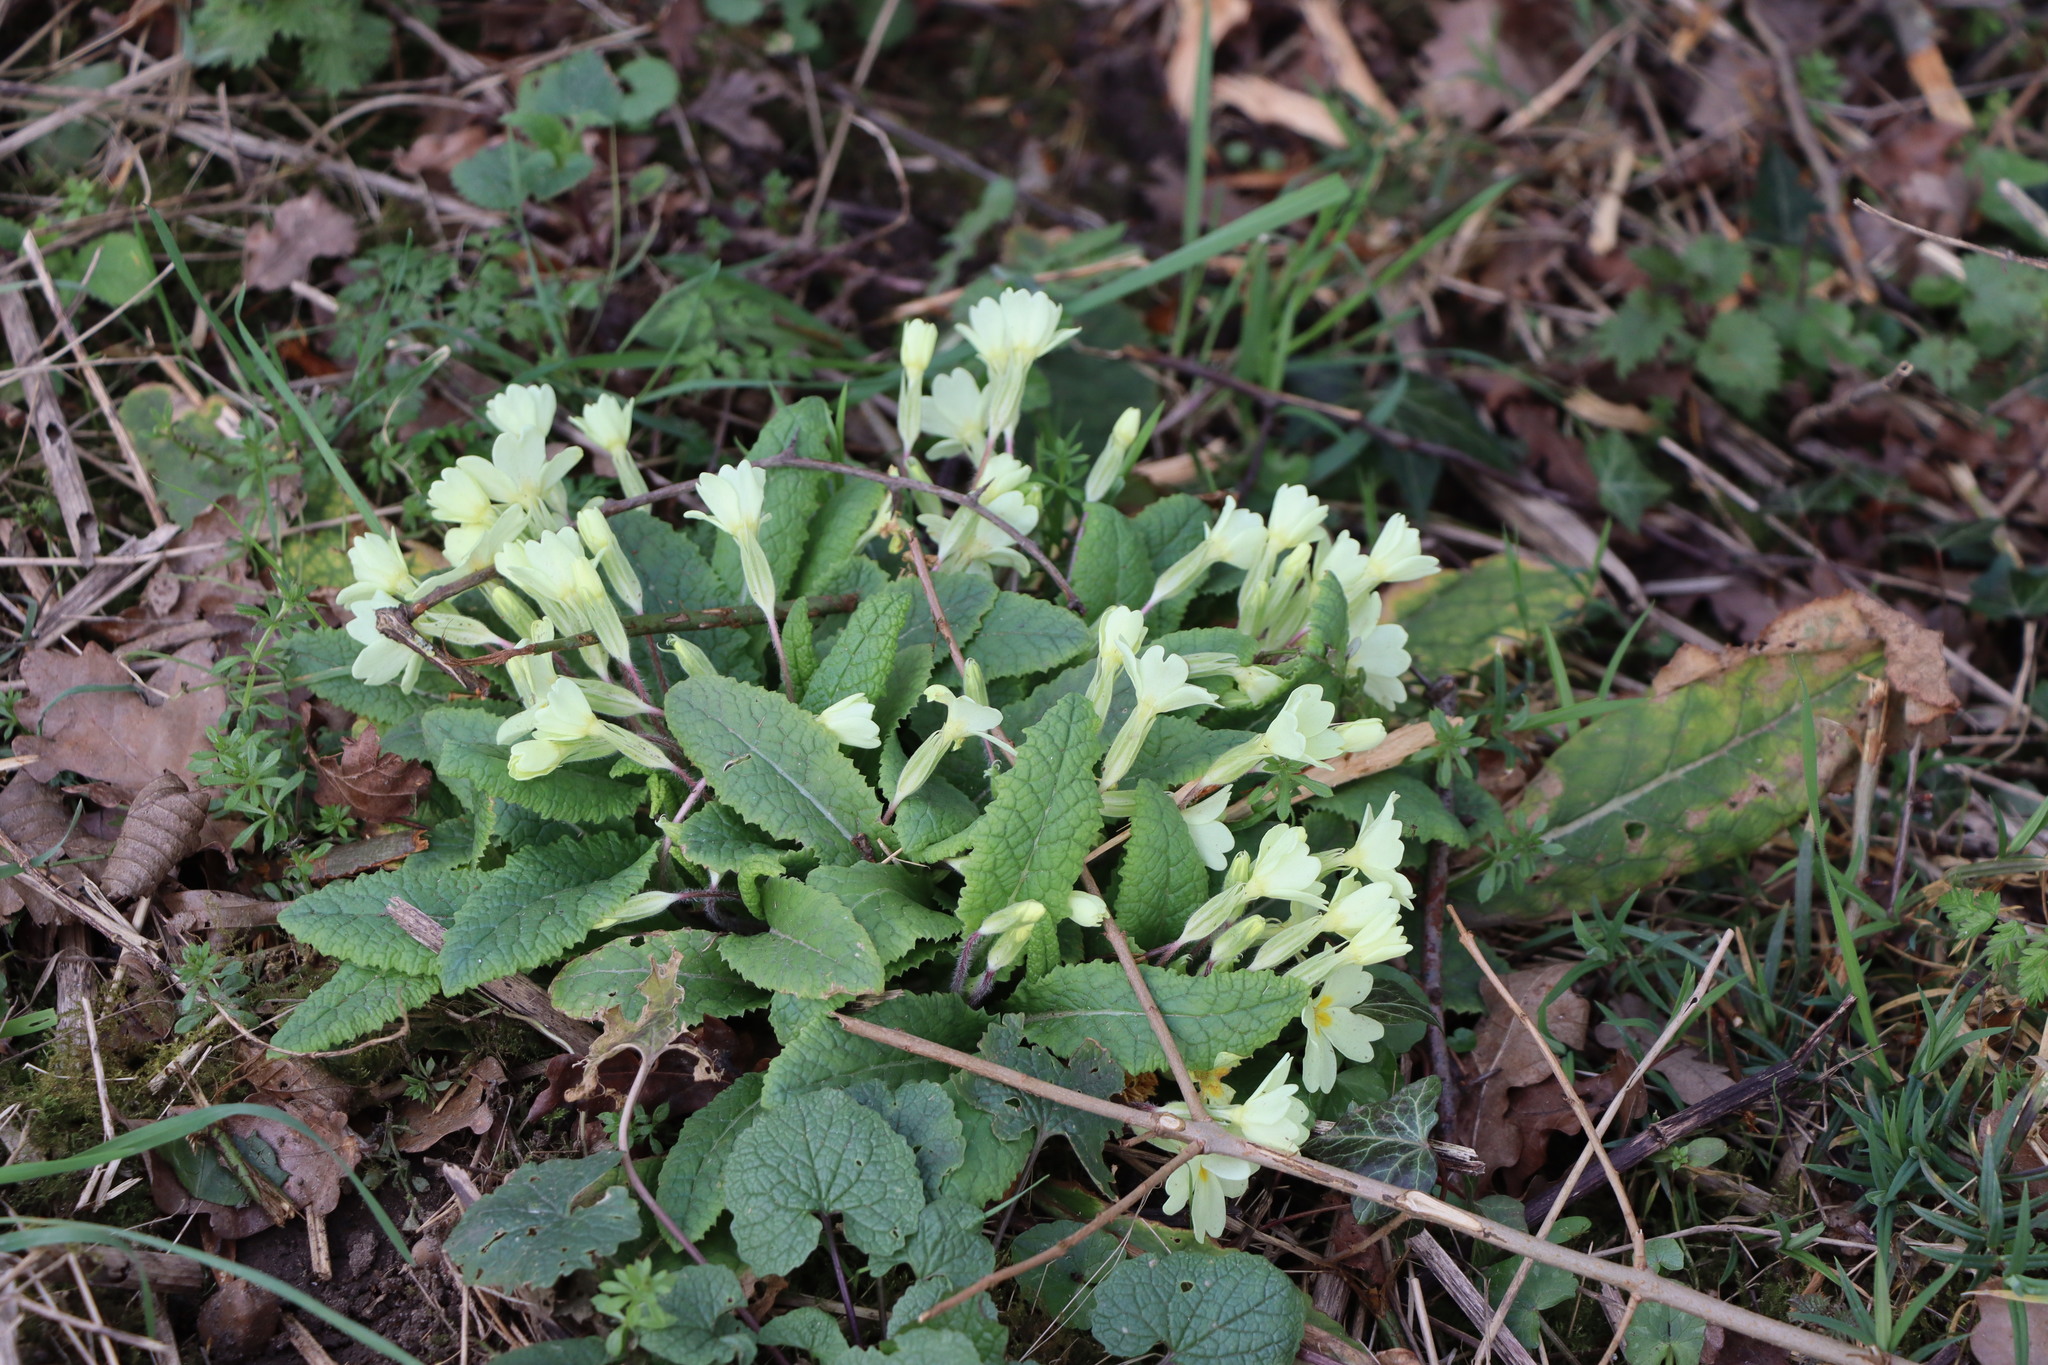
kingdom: Plantae
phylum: Tracheophyta
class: Magnoliopsida
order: Ericales
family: Primulaceae
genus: Primula
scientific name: Primula vulgaris
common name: Primrose
